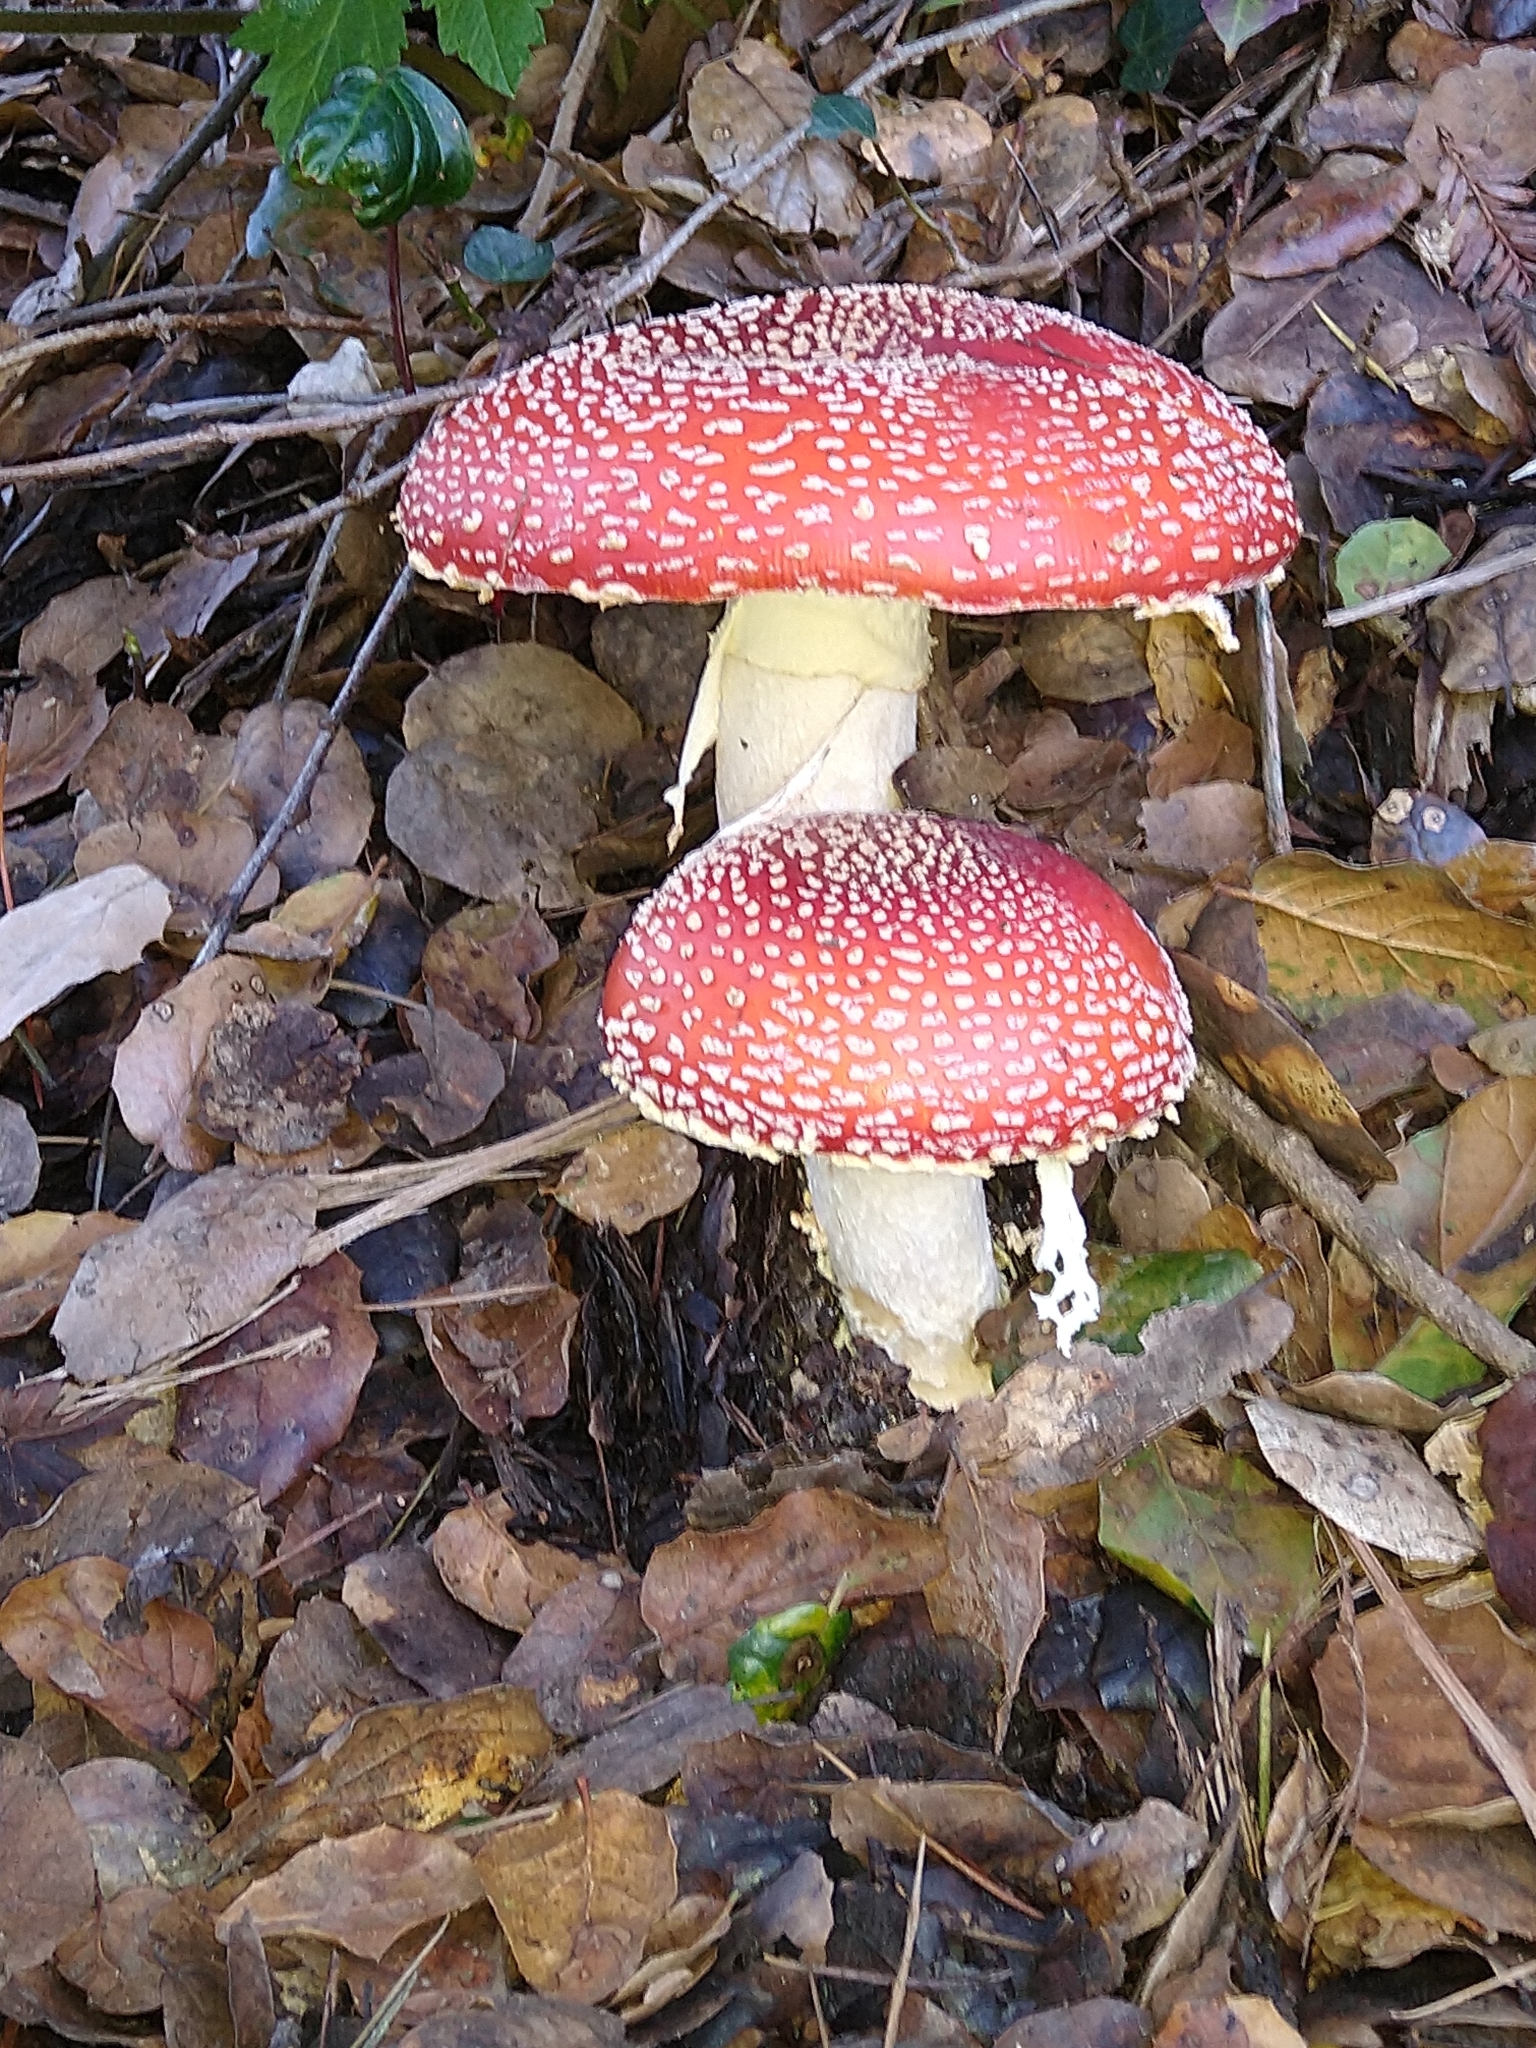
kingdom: Fungi
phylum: Basidiomycota
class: Agaricomycetes
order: Agaricales
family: Amanitaceae
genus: Amanita
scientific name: Amanita muscaria
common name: Fly agaric
